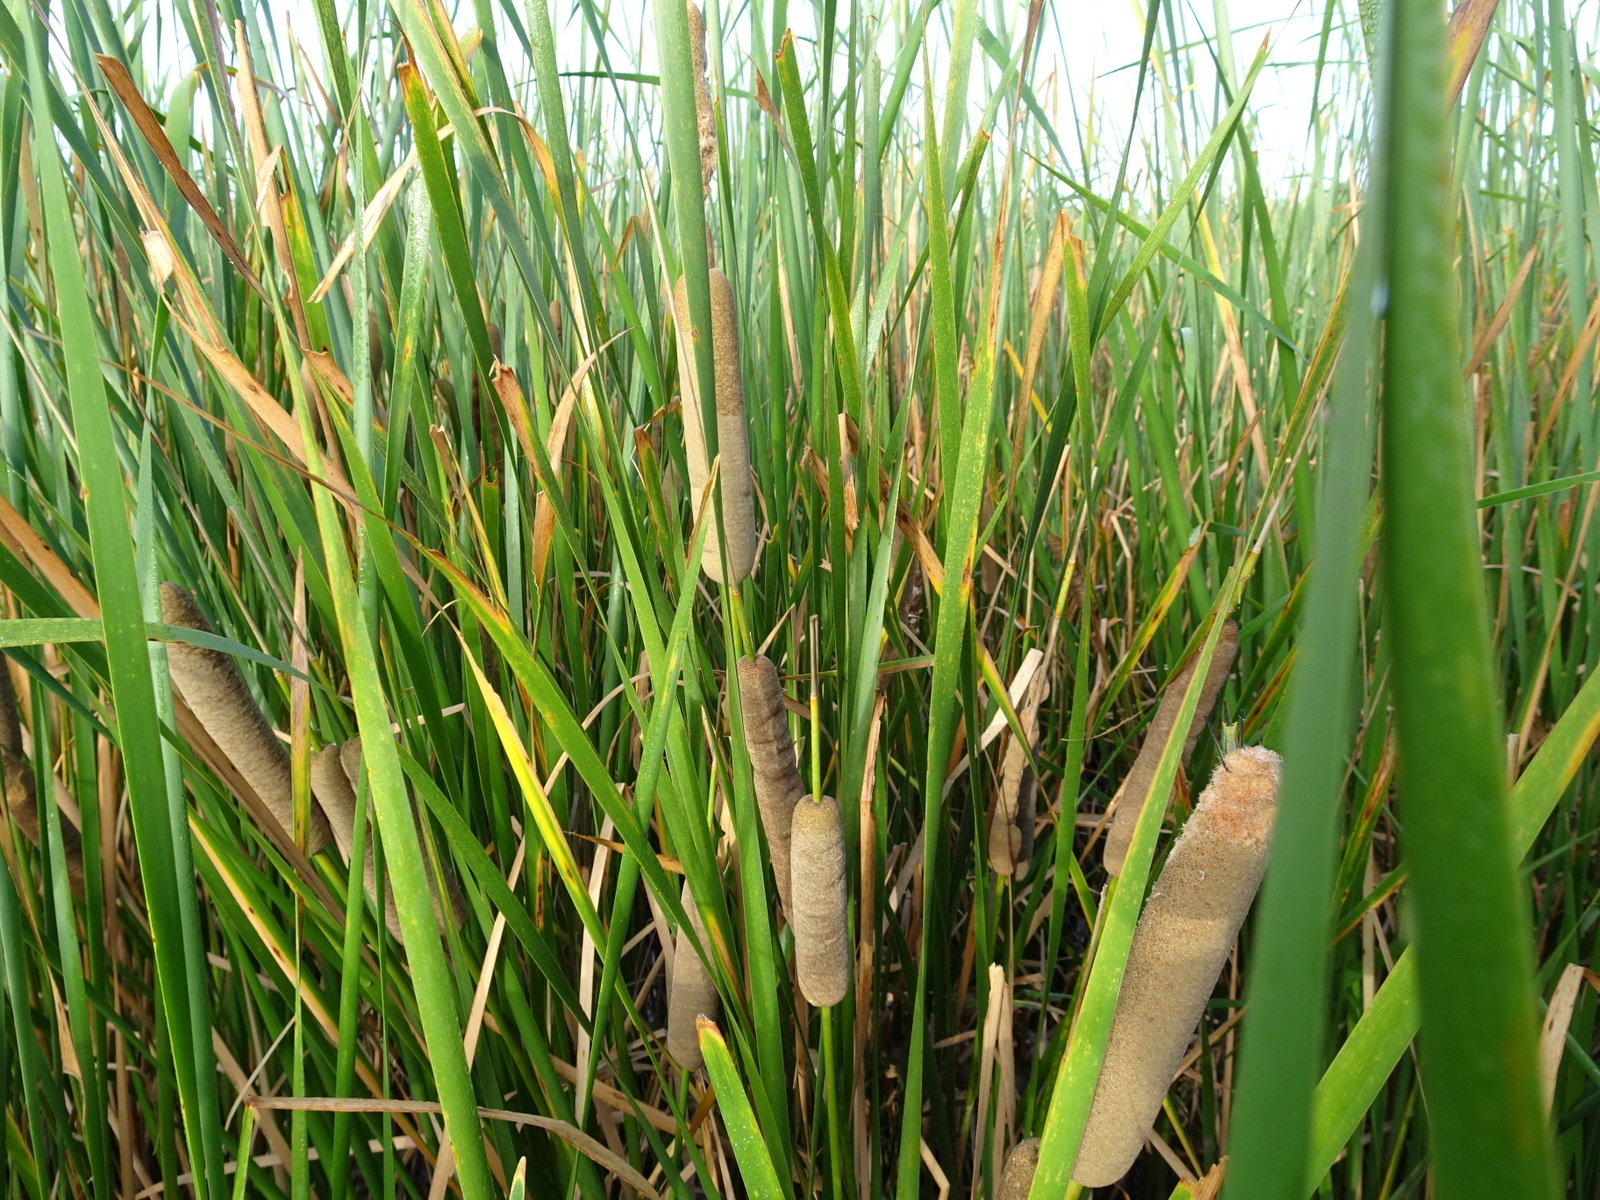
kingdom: Plantae
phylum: Tracheophyta
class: Liliopsida
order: Poales
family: Typhaceae
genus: Typha
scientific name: Typha domingensis
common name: Southern cattail
